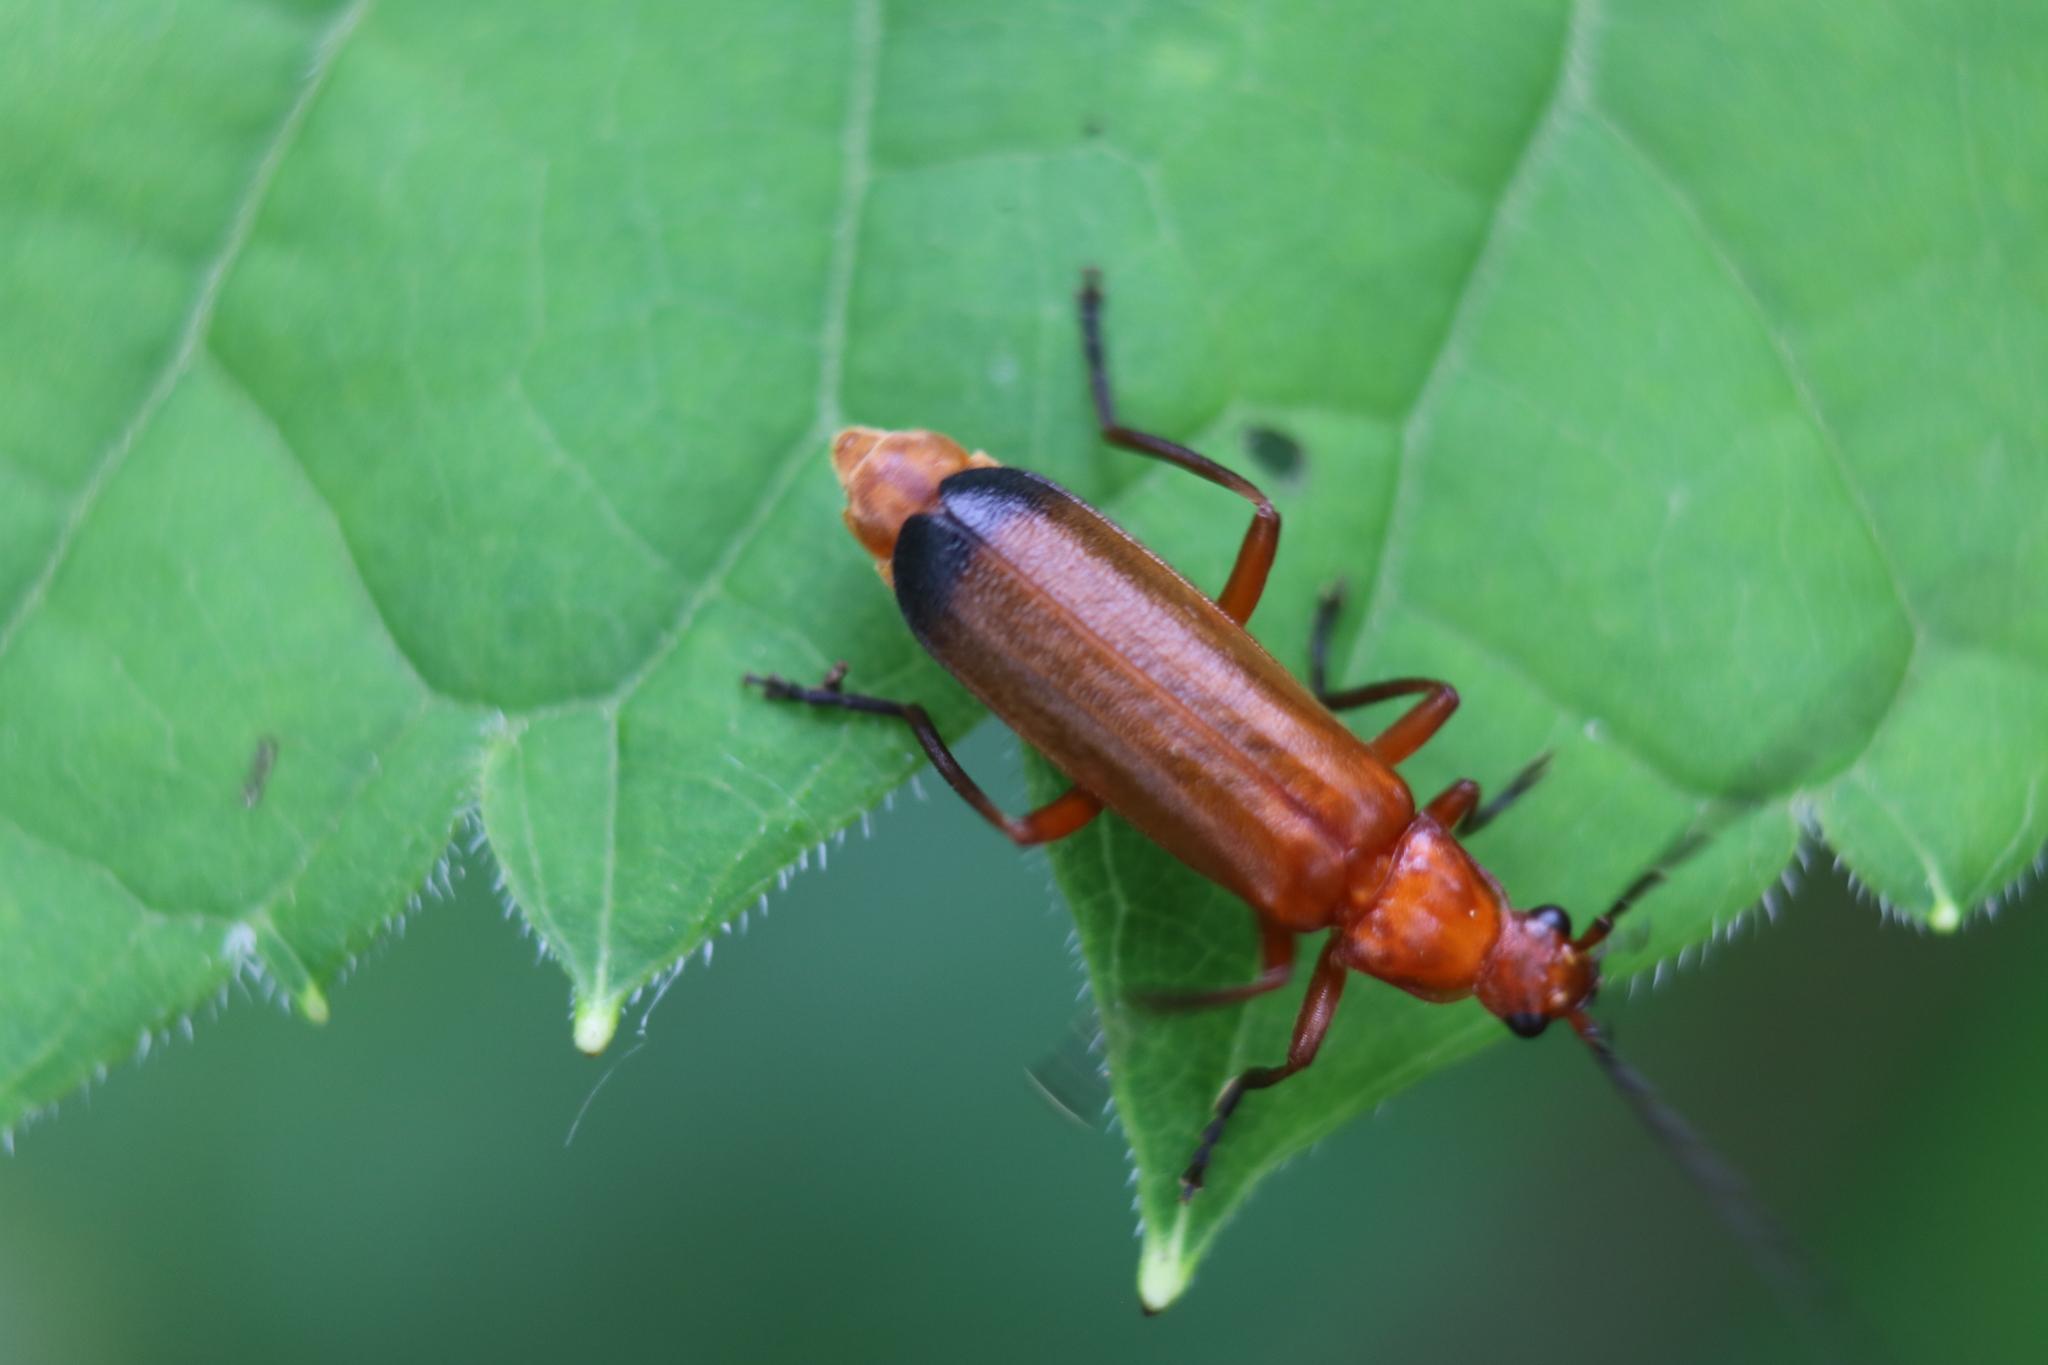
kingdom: Animalia
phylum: Arthropoda
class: Insecta
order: Coleoptera
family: Cantharidae
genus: Rhagonycha
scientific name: Rhagonycha fulva
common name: Common red soldier beetle
